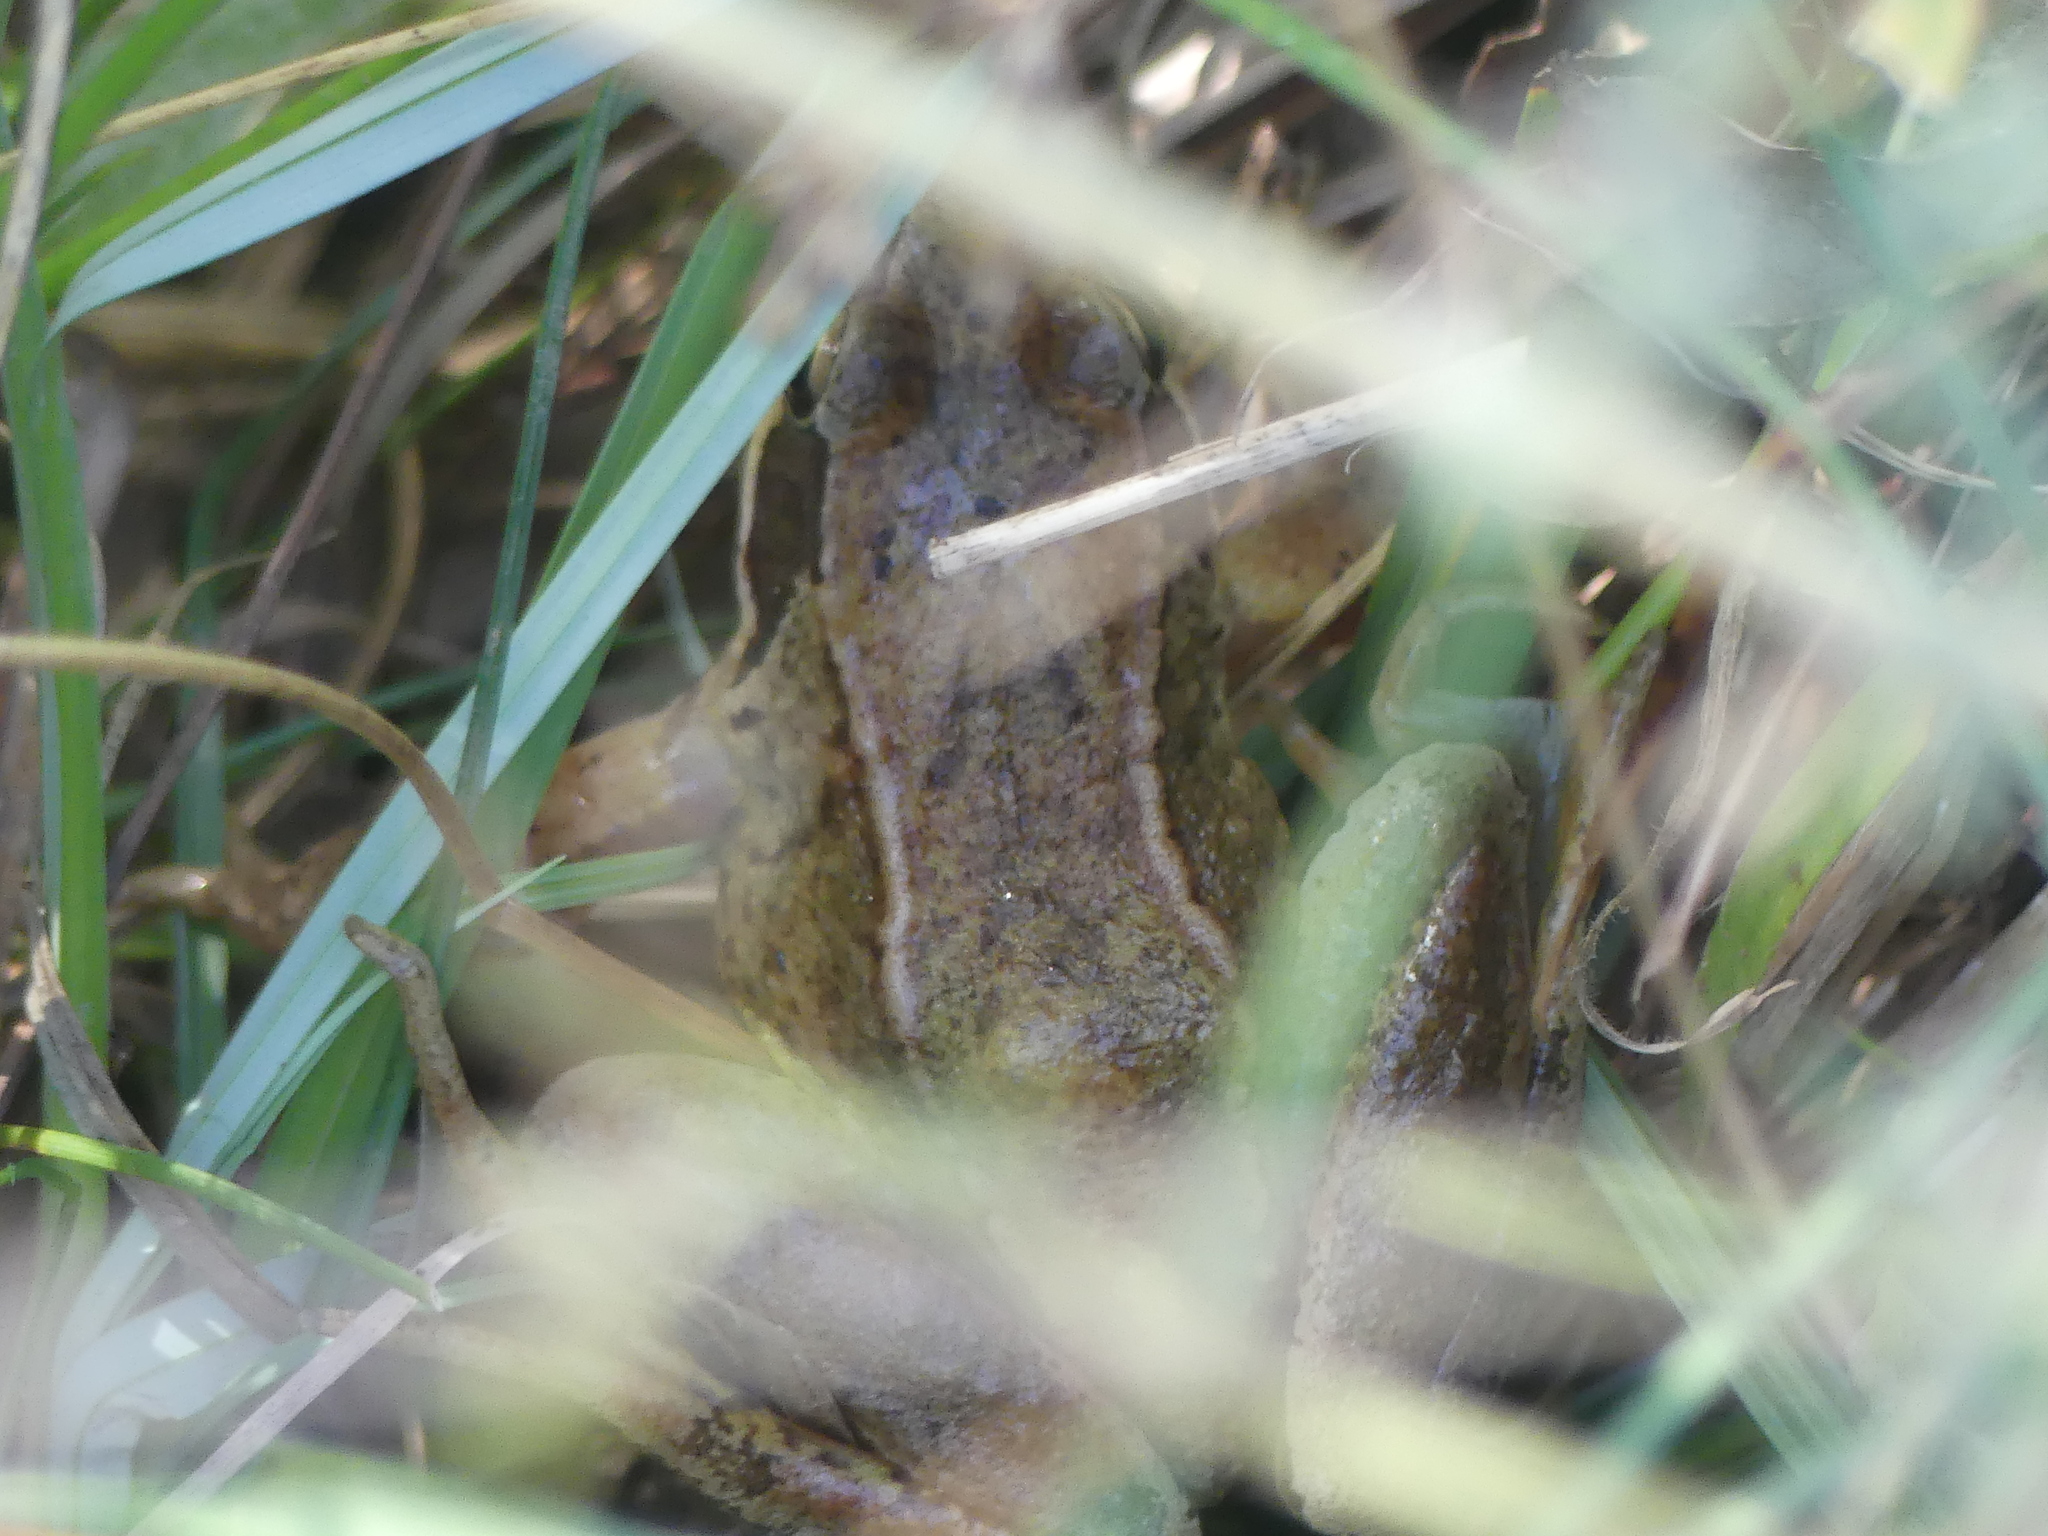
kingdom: Animalia
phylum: Chordata
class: Amphibia
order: Anura
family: Ranidae
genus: Rana
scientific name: Rana temporaria
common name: Common frog
